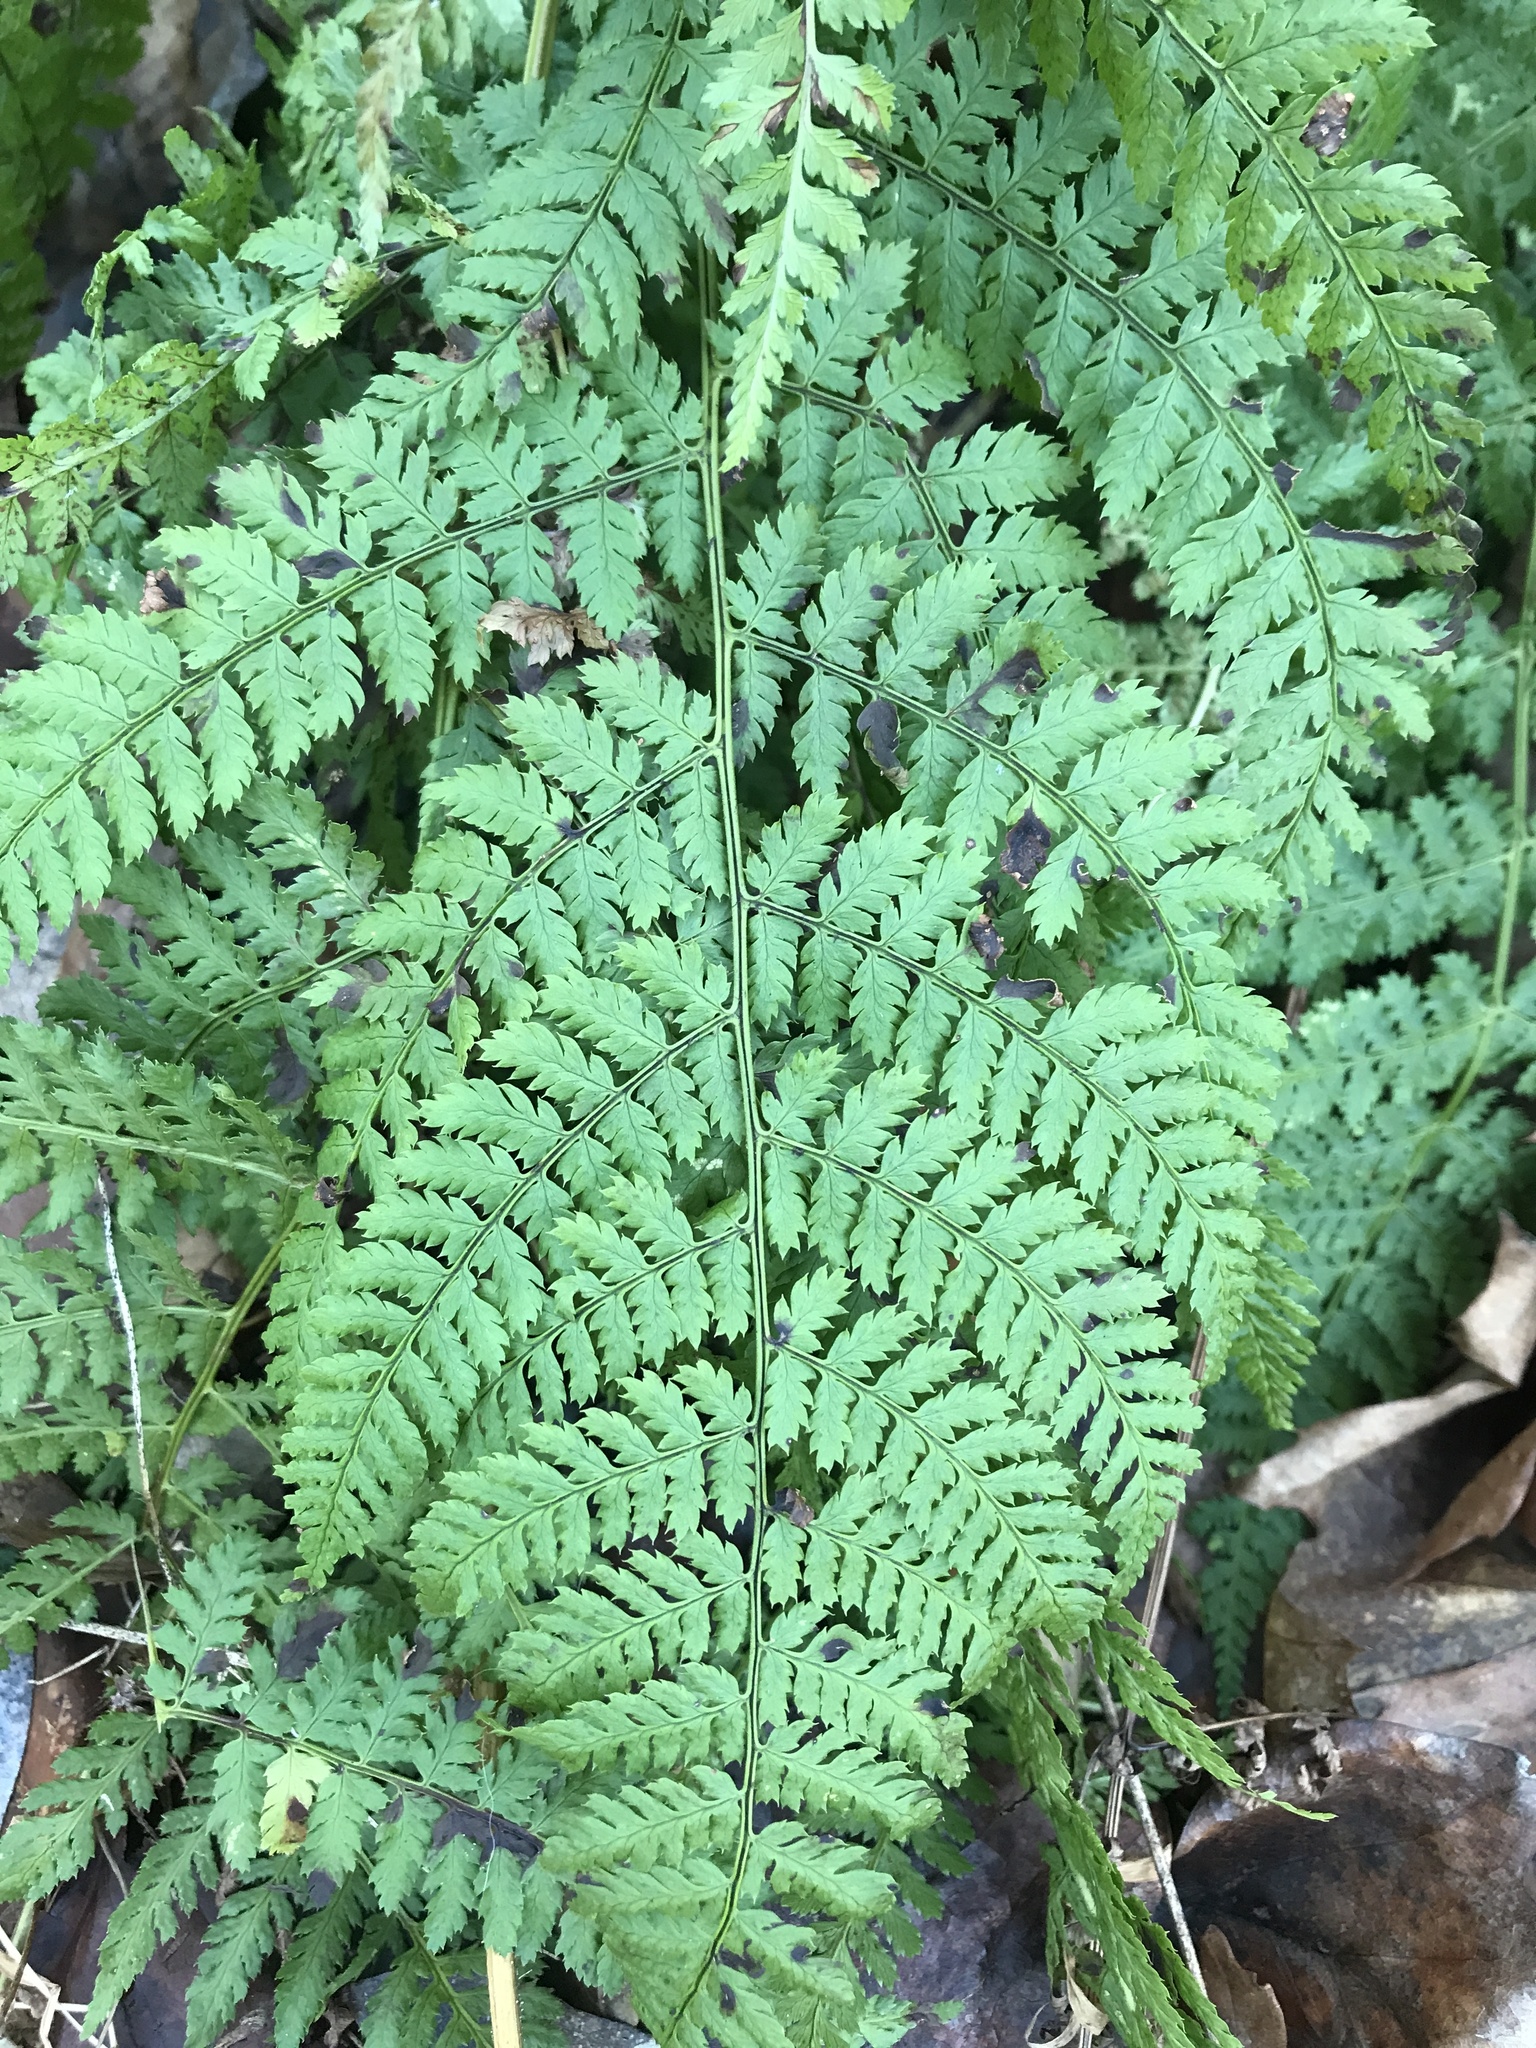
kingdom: Plantae
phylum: Tracheophyta
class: Polypodiopsida
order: Polypodiales
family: Dryopteridaceae
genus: Dryopteris
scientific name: Dryopteris intermedia
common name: Evergreen wood fern
